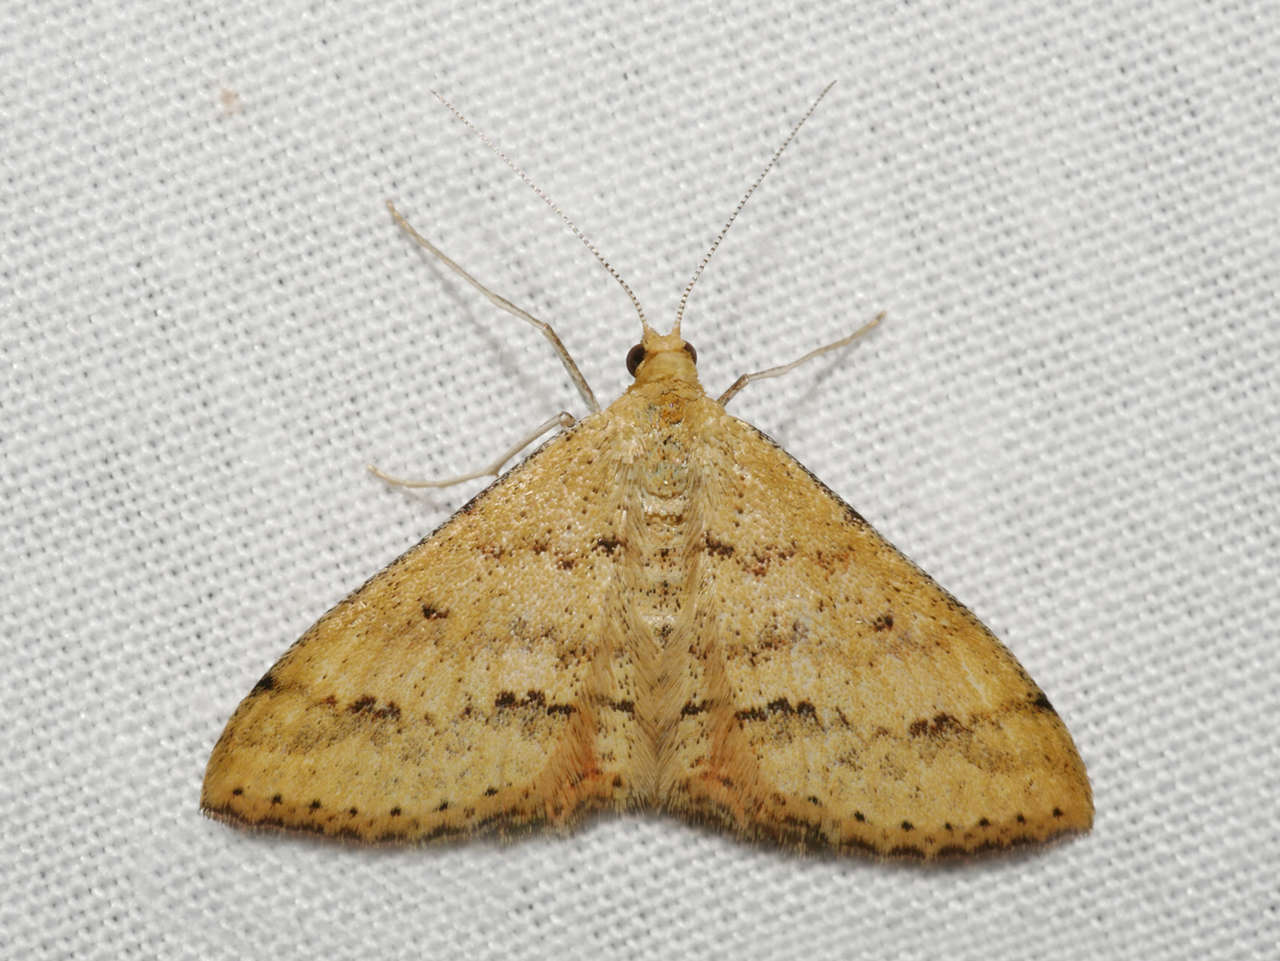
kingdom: Animalia
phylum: Arthropoda
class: Insecta
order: Lepidoptera
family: Geometridae
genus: Scopula
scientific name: Scopula rubraria
